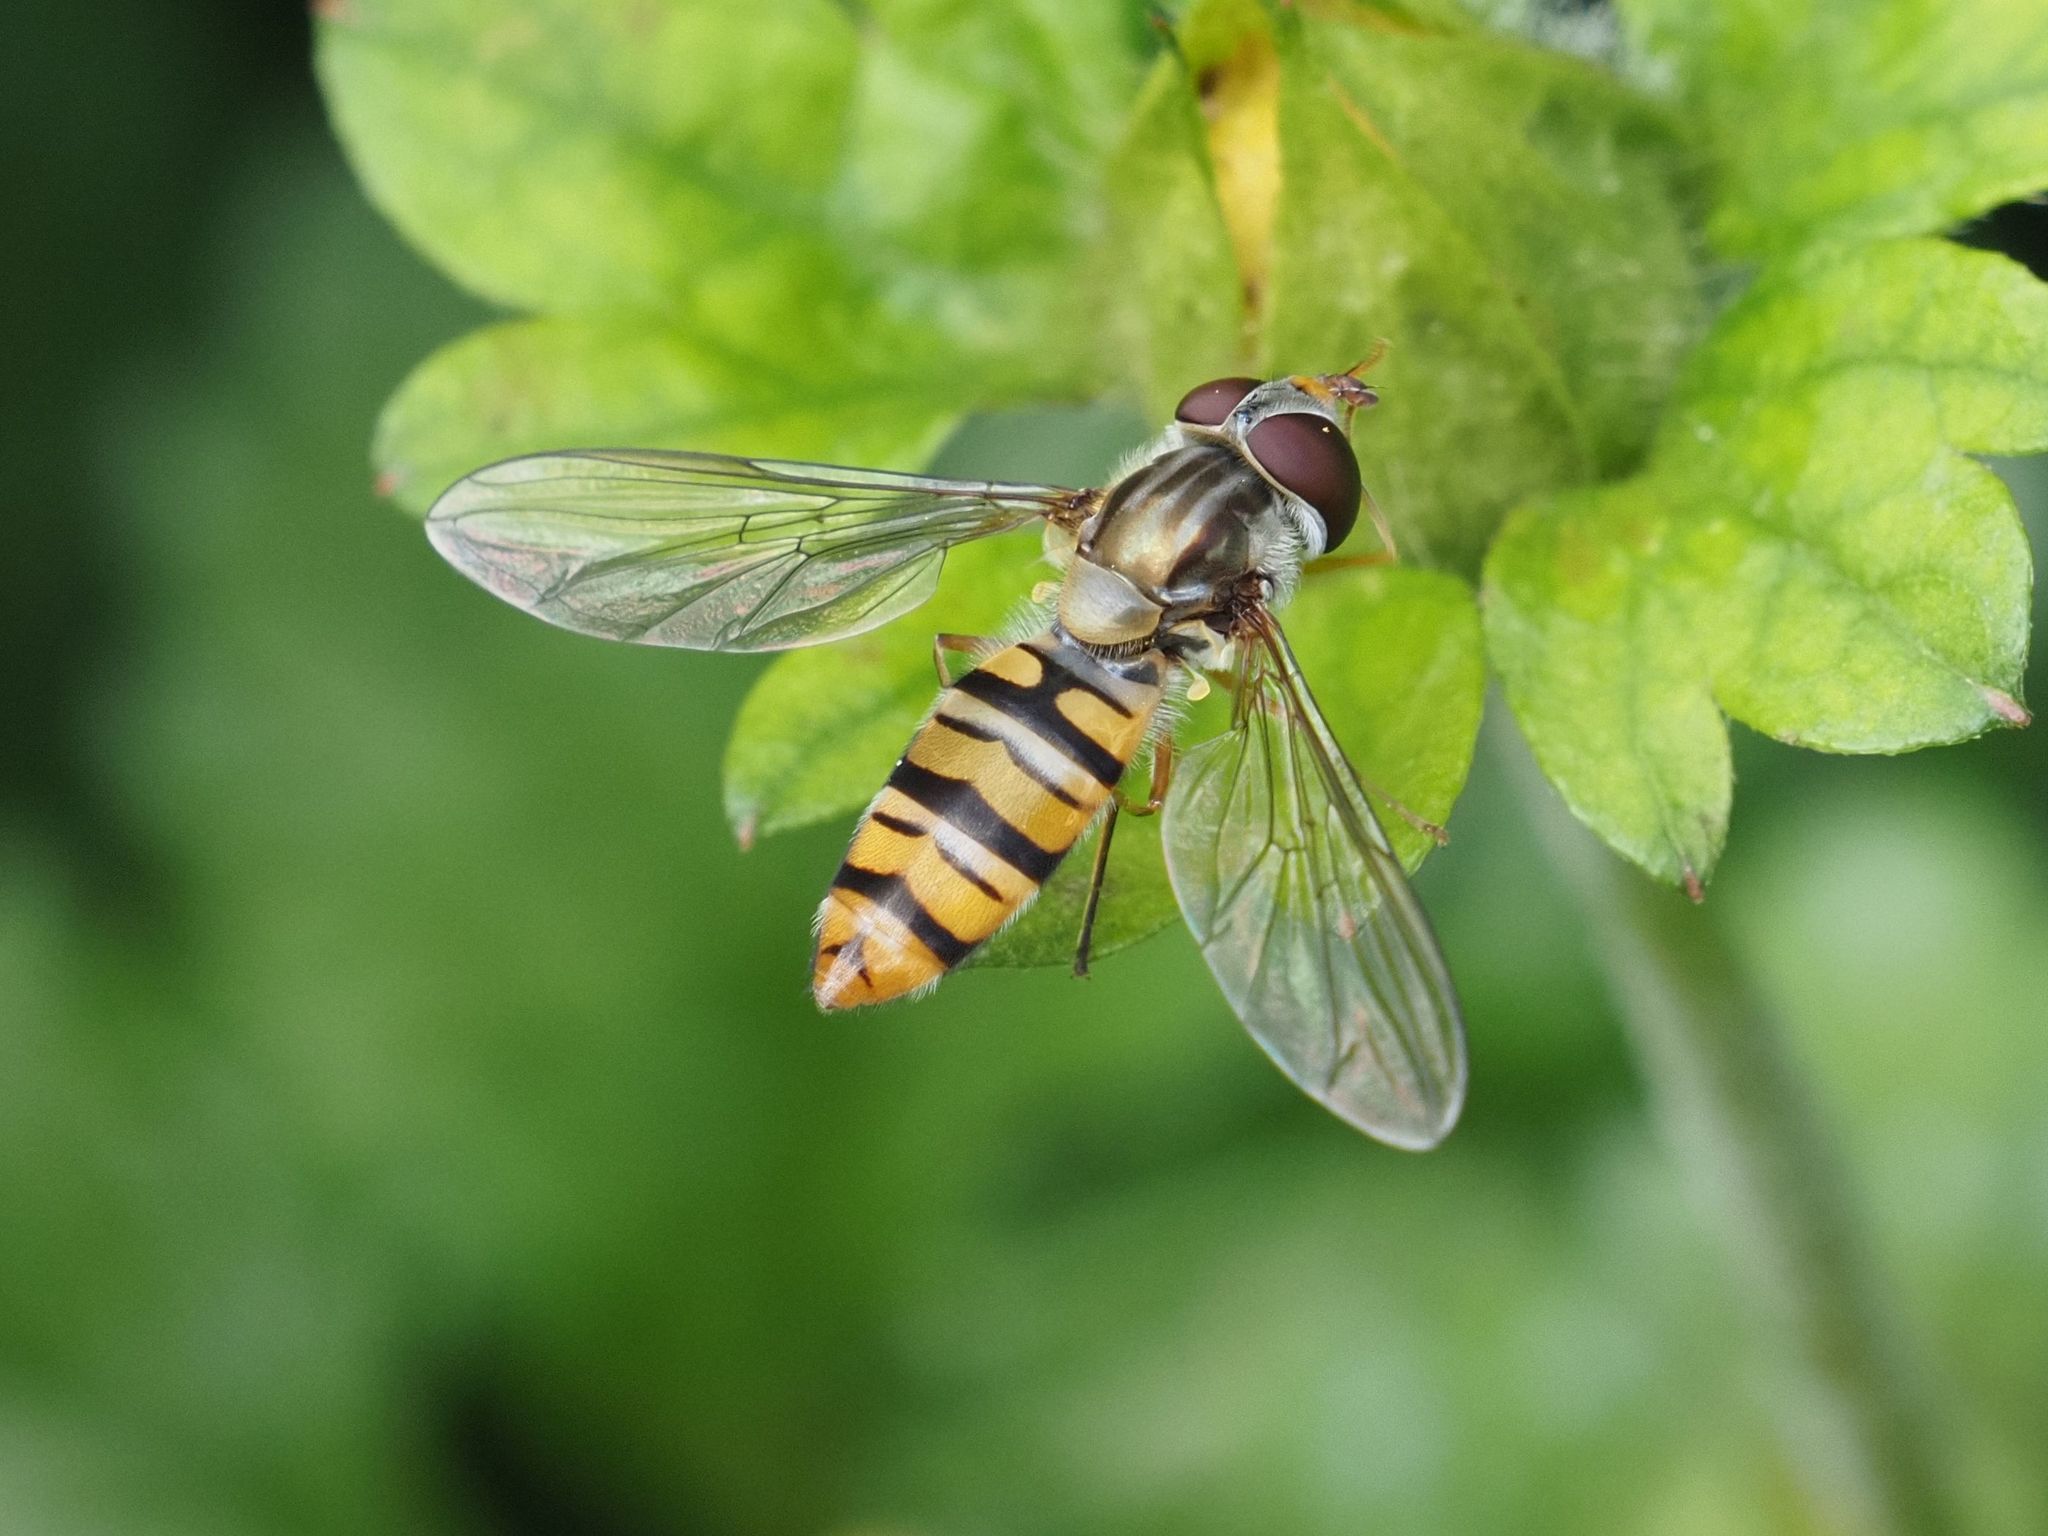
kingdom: Animalia
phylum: Arthropoda
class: Insecta
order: Diptera
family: Syrphidae
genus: Episyrphus
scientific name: Episyrphus balteatus
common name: Marmalade hoverfly
